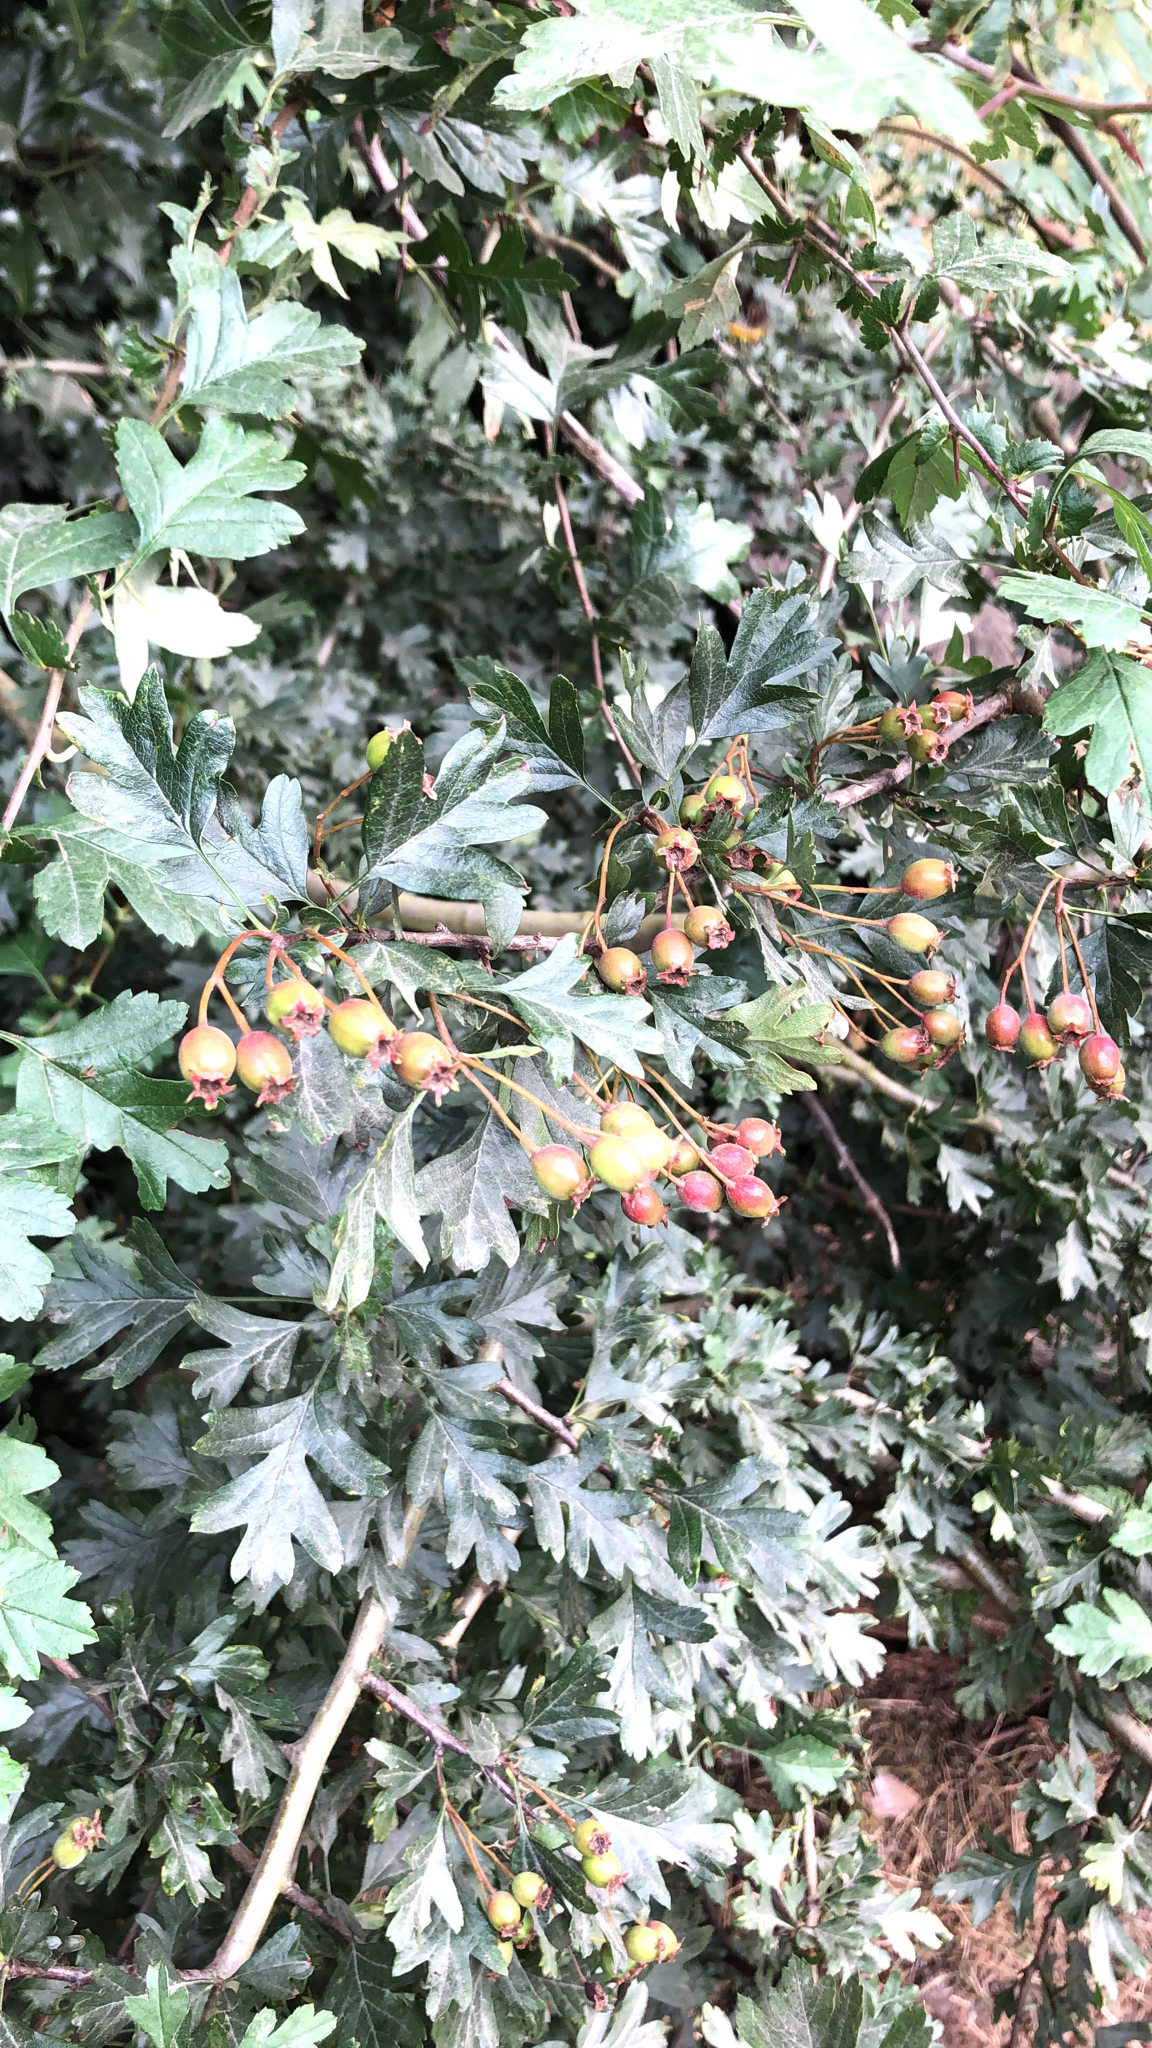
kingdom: Plantae
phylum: Tracheophyta
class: Magnoliopsida
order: Rosales
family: Rosaceae
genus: Crataegus
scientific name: Crataegus monogyna
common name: Hawthorn
